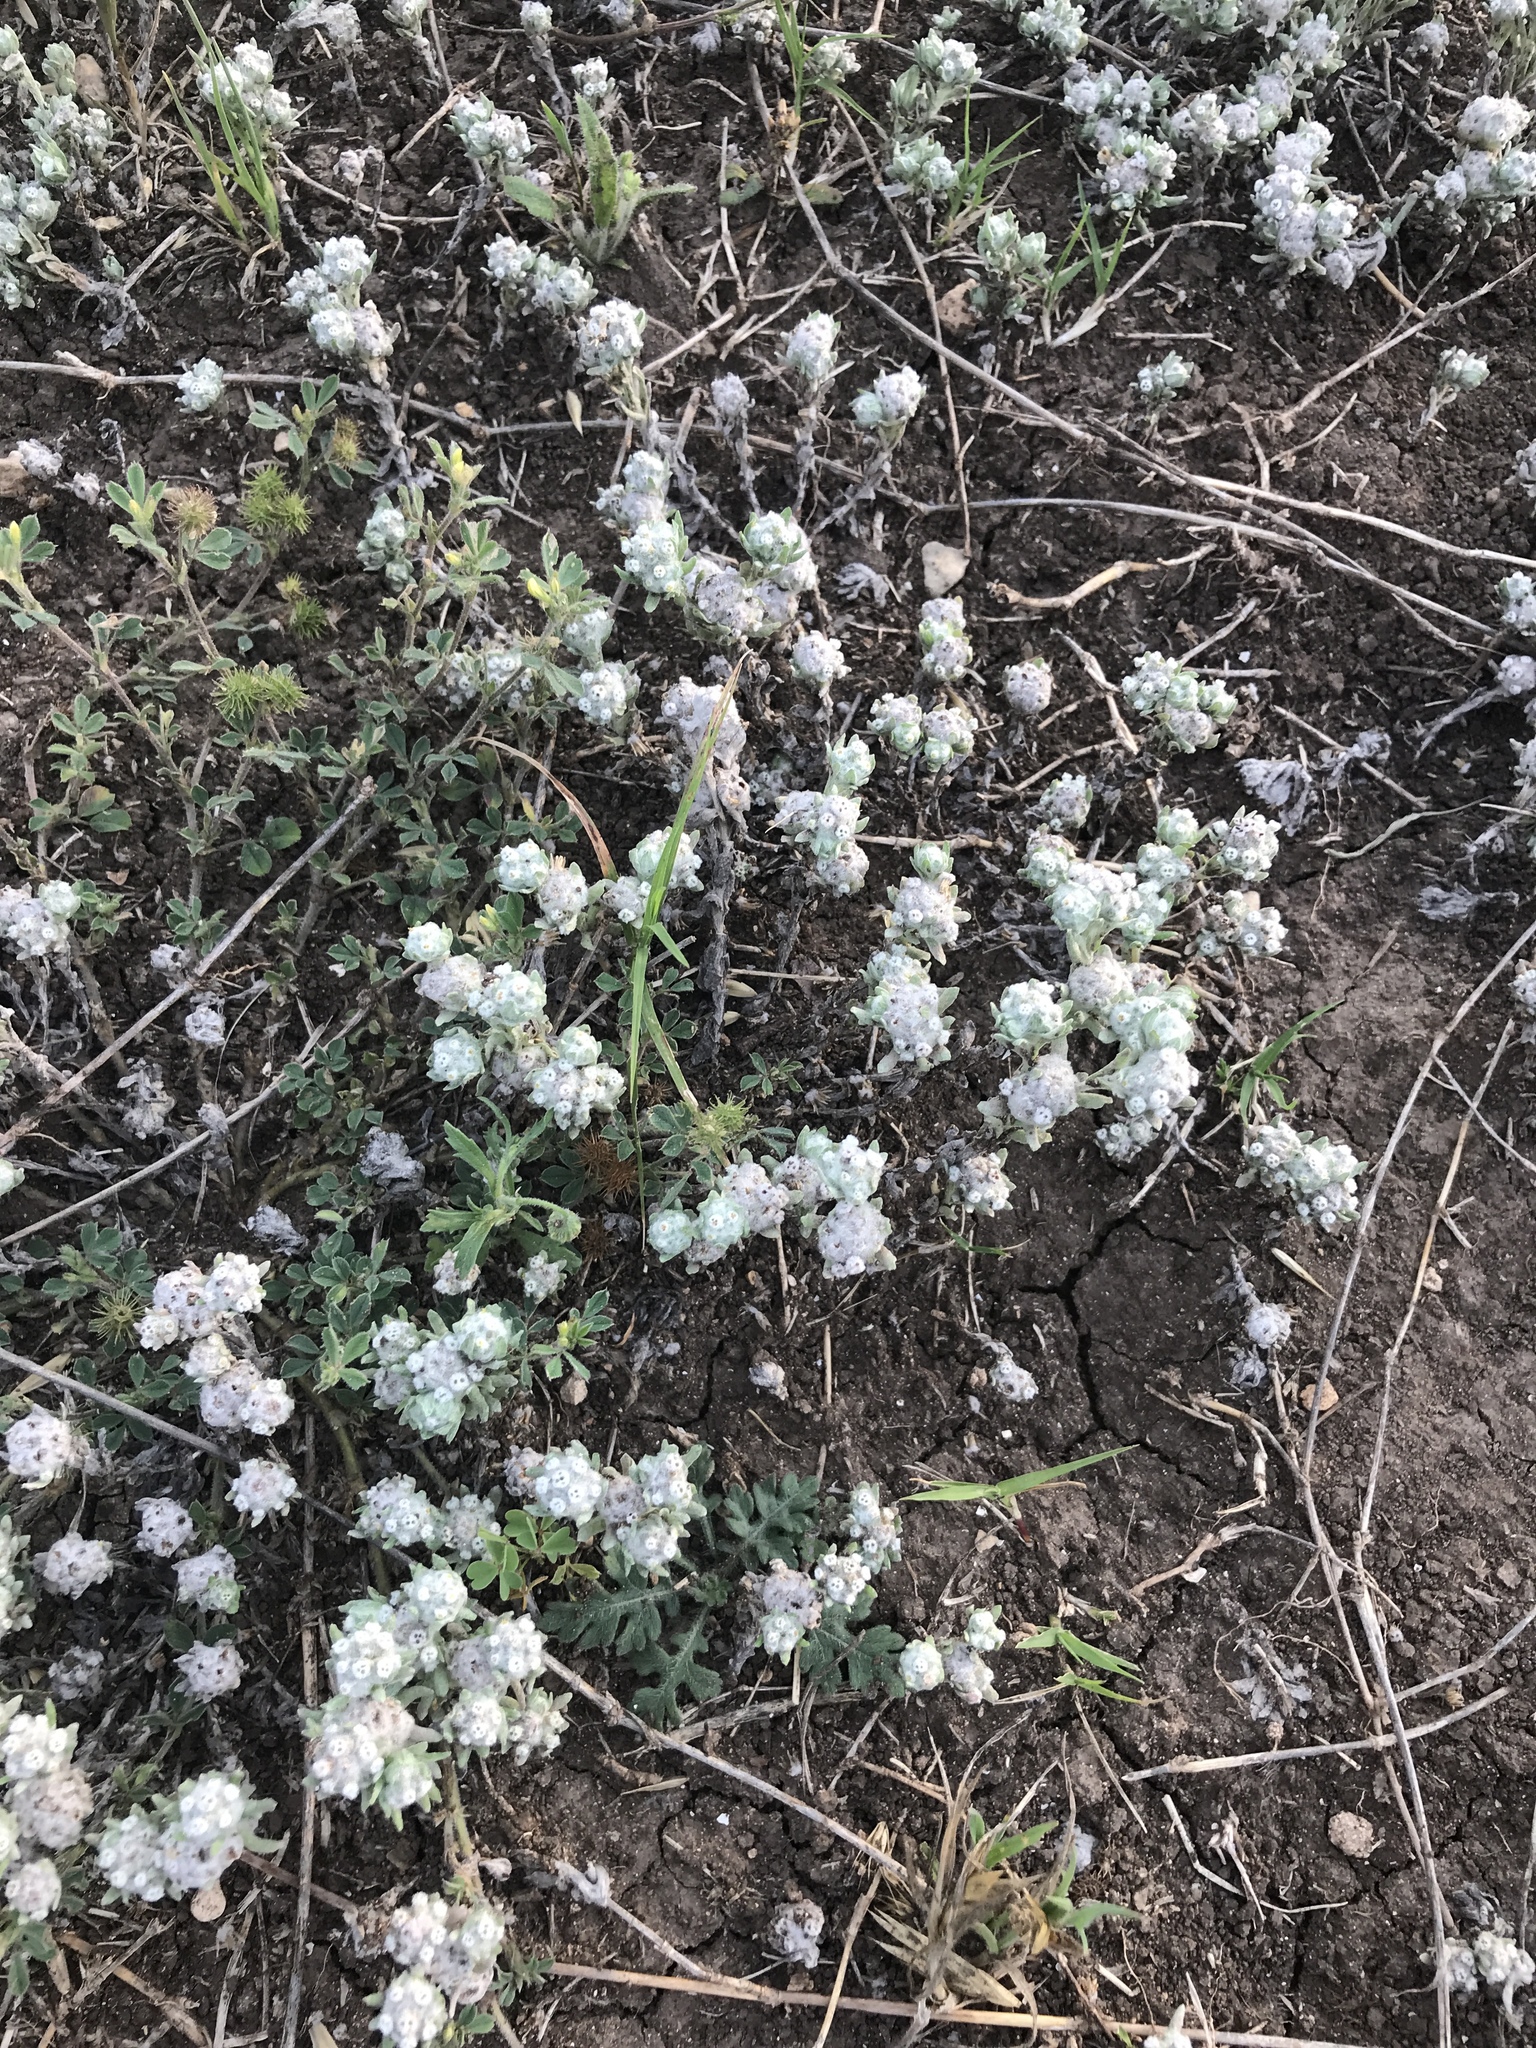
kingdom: Plantae
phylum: Tracheophyta
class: Magnoliopsida
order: Asterales
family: Asteraceae
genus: Diaperia
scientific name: Diaperia verna
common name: Many-stem rabbit-tobacco
